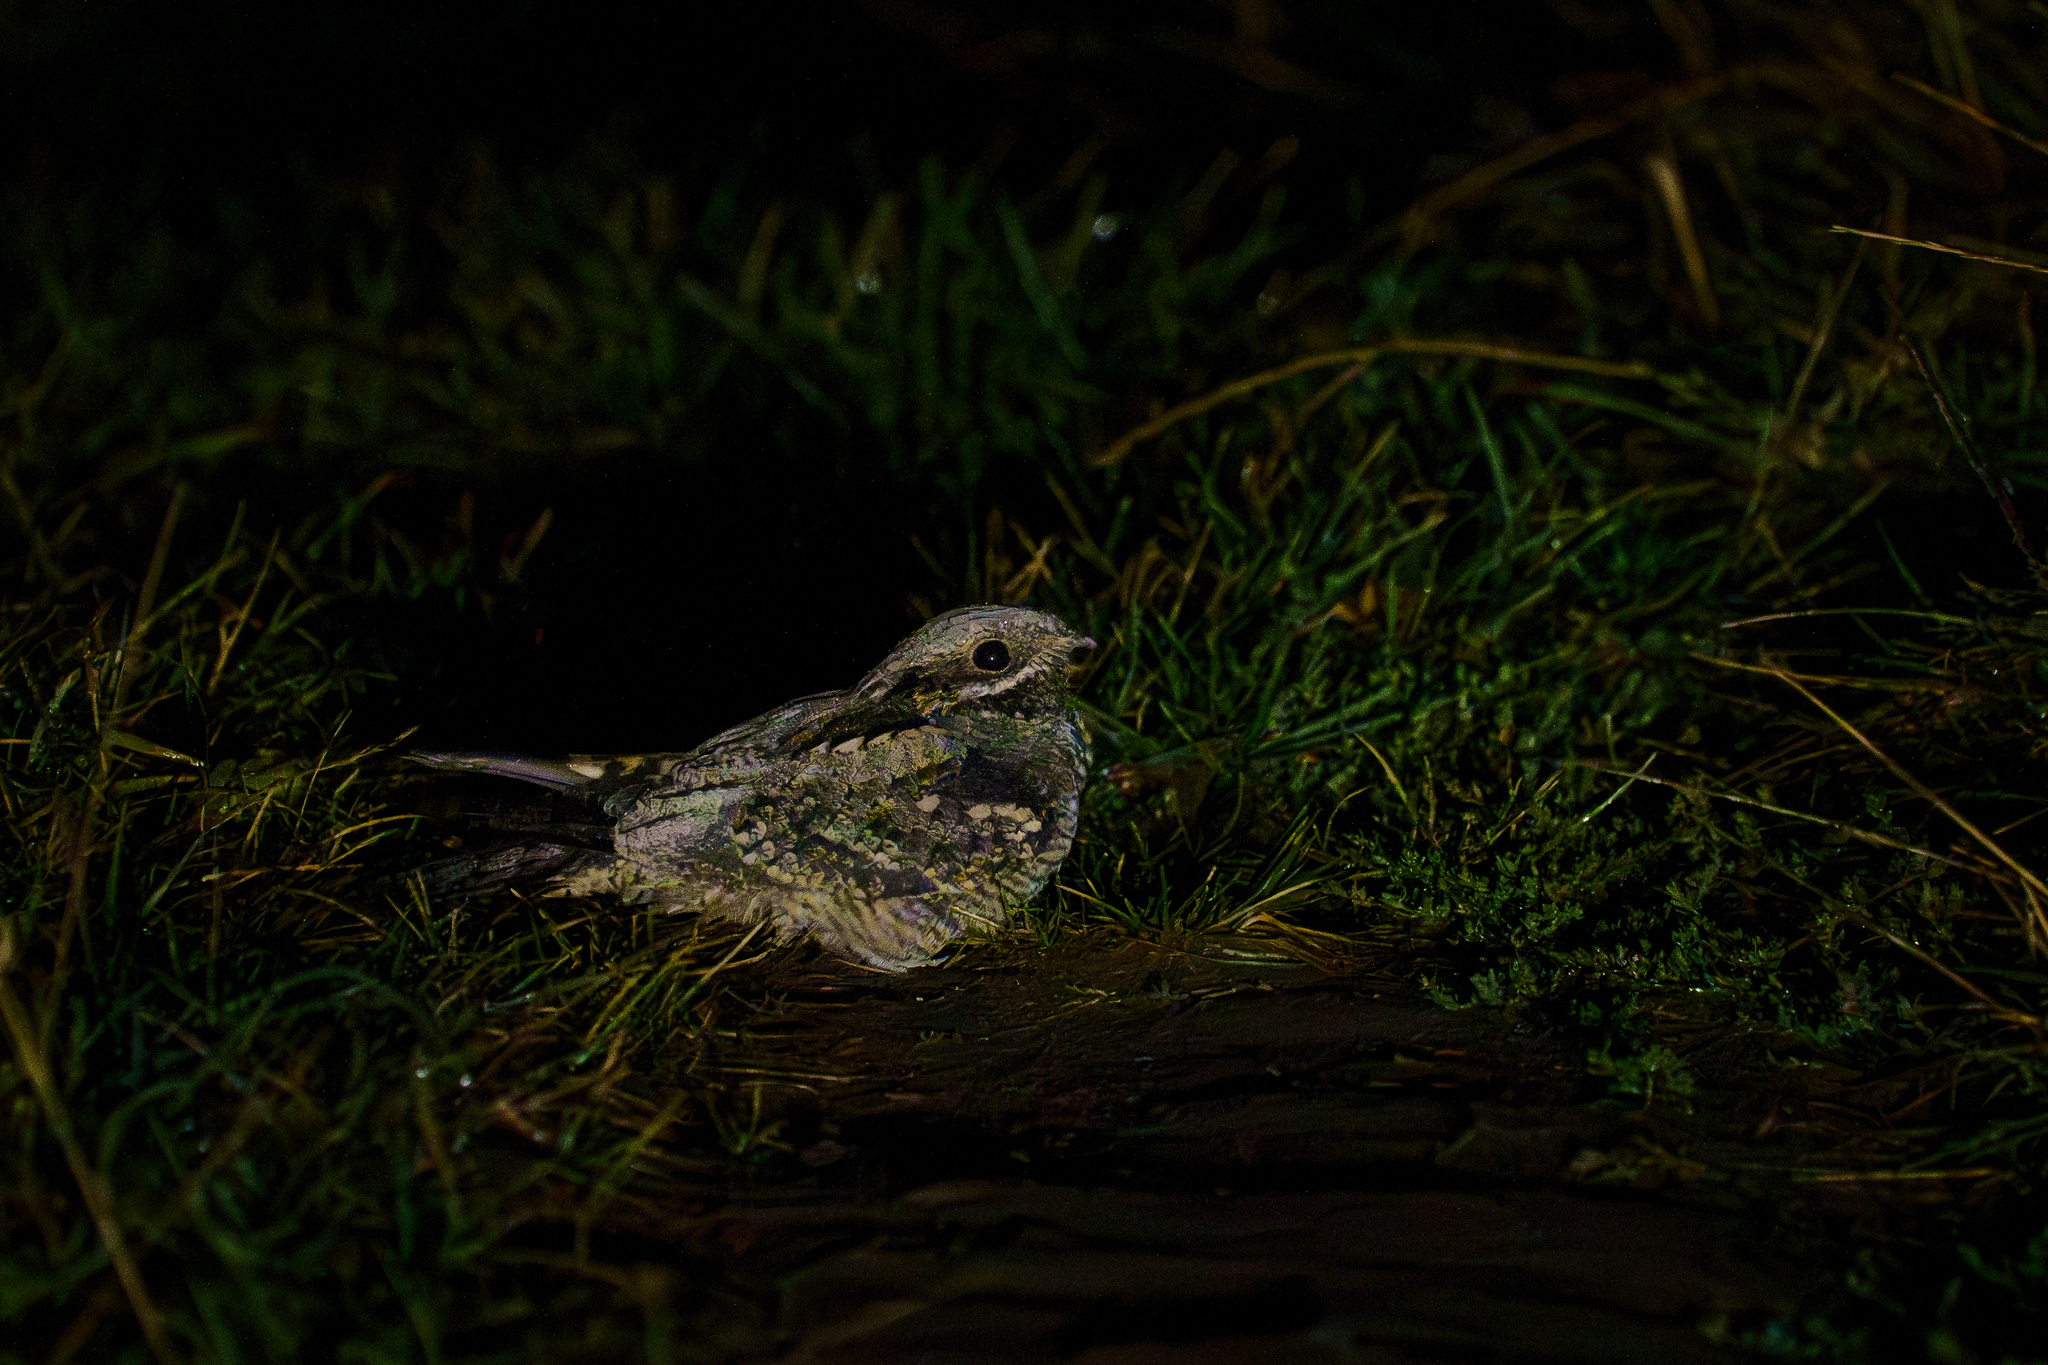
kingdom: Animalia
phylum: Chordata
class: Aves
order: Caprimulgiformes
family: Caprimulgidae
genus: Caprimulgus
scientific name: Caprimulgus europaeus
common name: European nightjar
